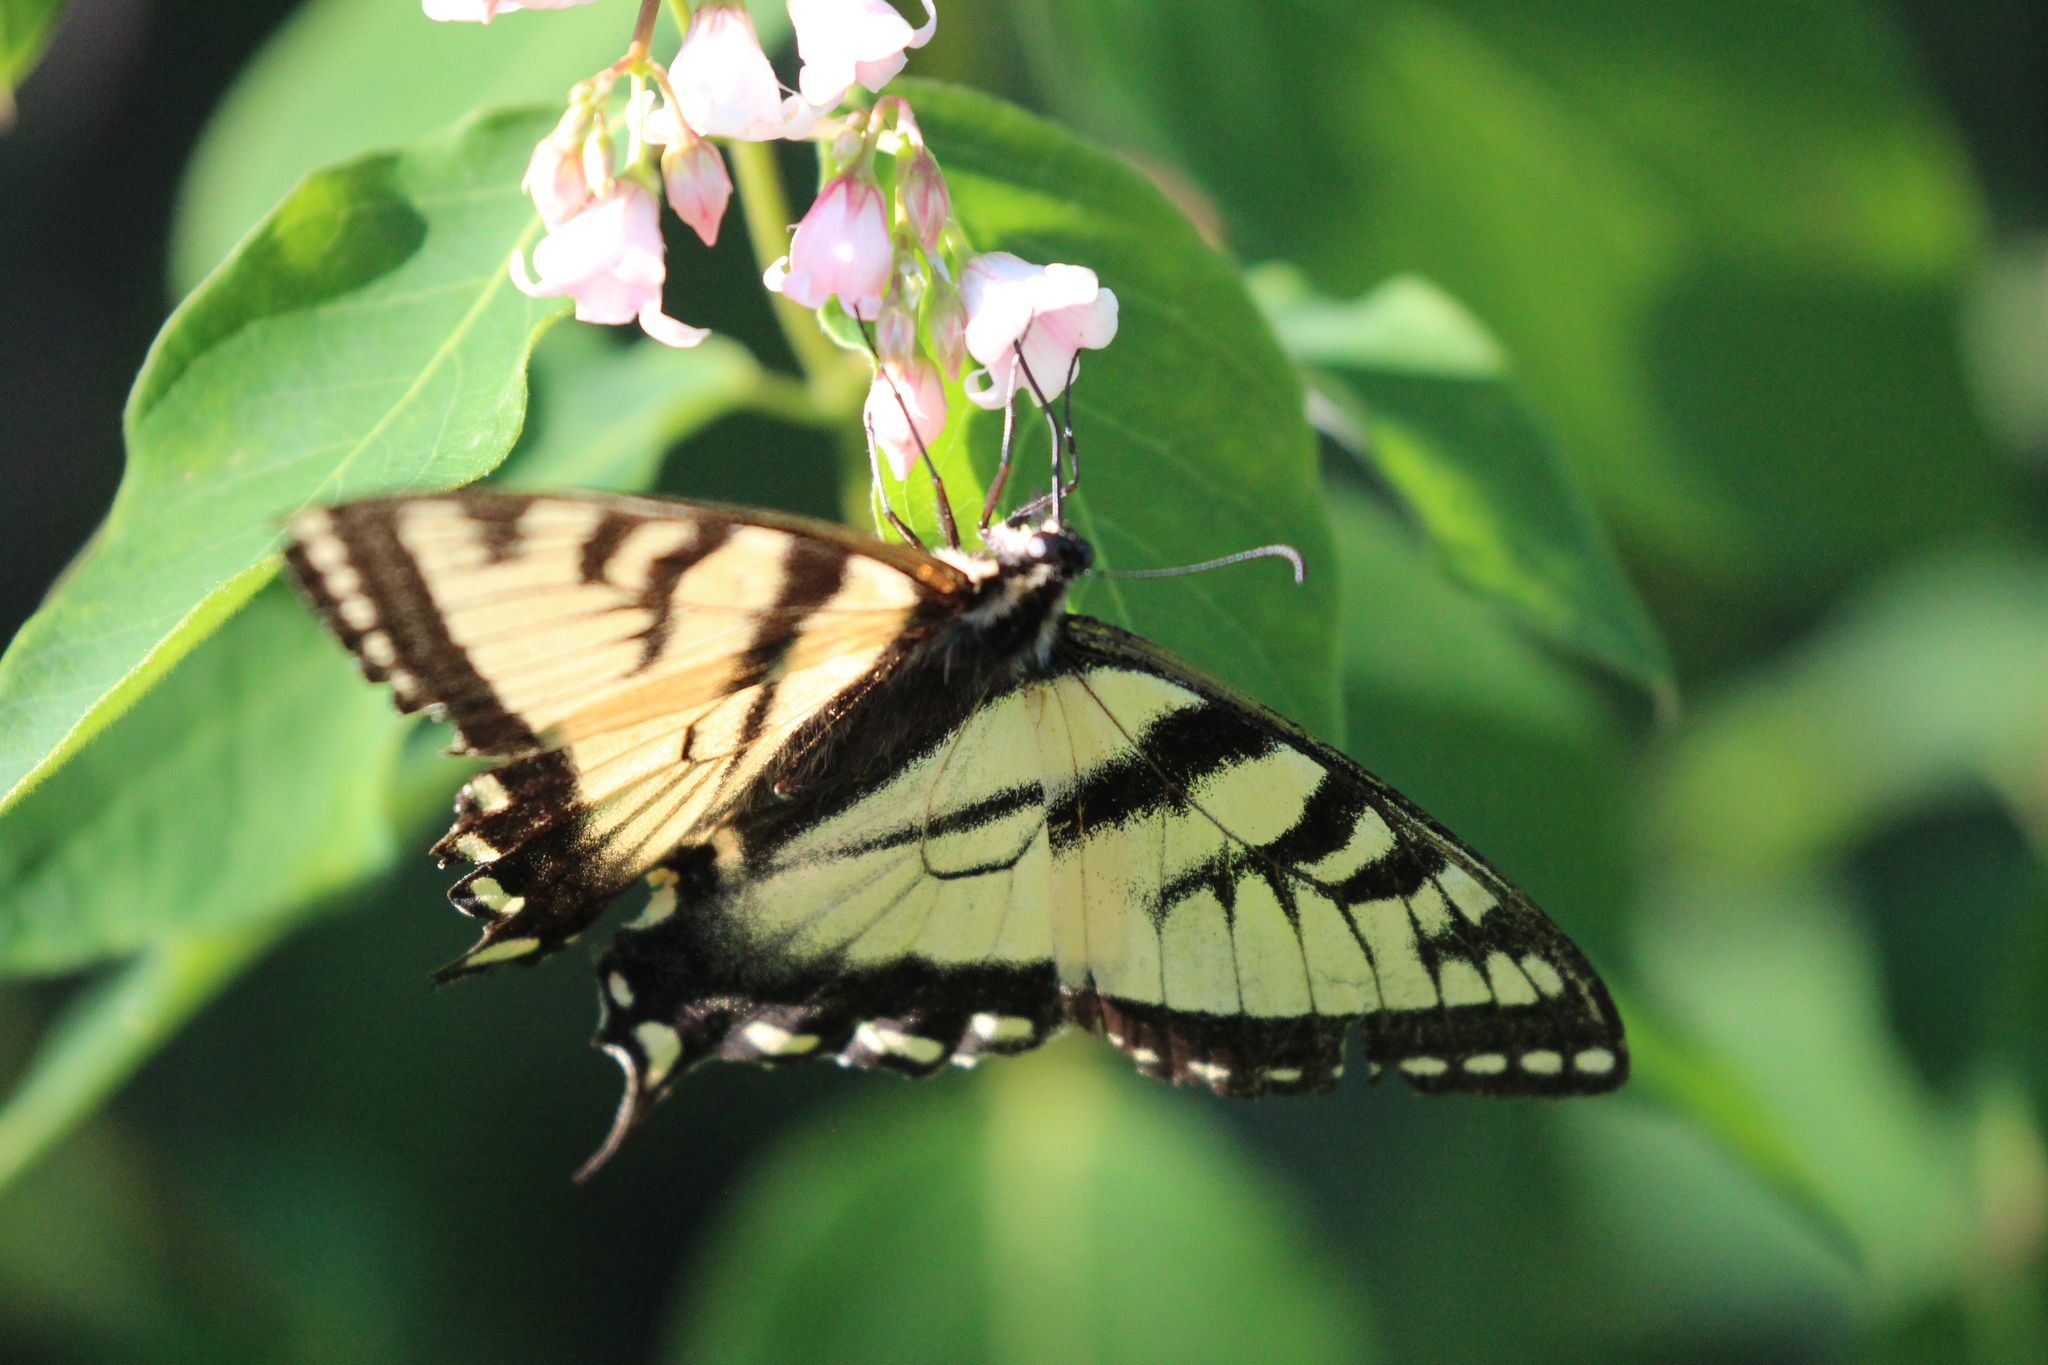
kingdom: Animalia
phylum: Arthropoda
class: Insecta
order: Lepidoptera
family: Papilionidae
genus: Papilio
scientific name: Papilio canadensis
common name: Canadian tiger swallowtail
